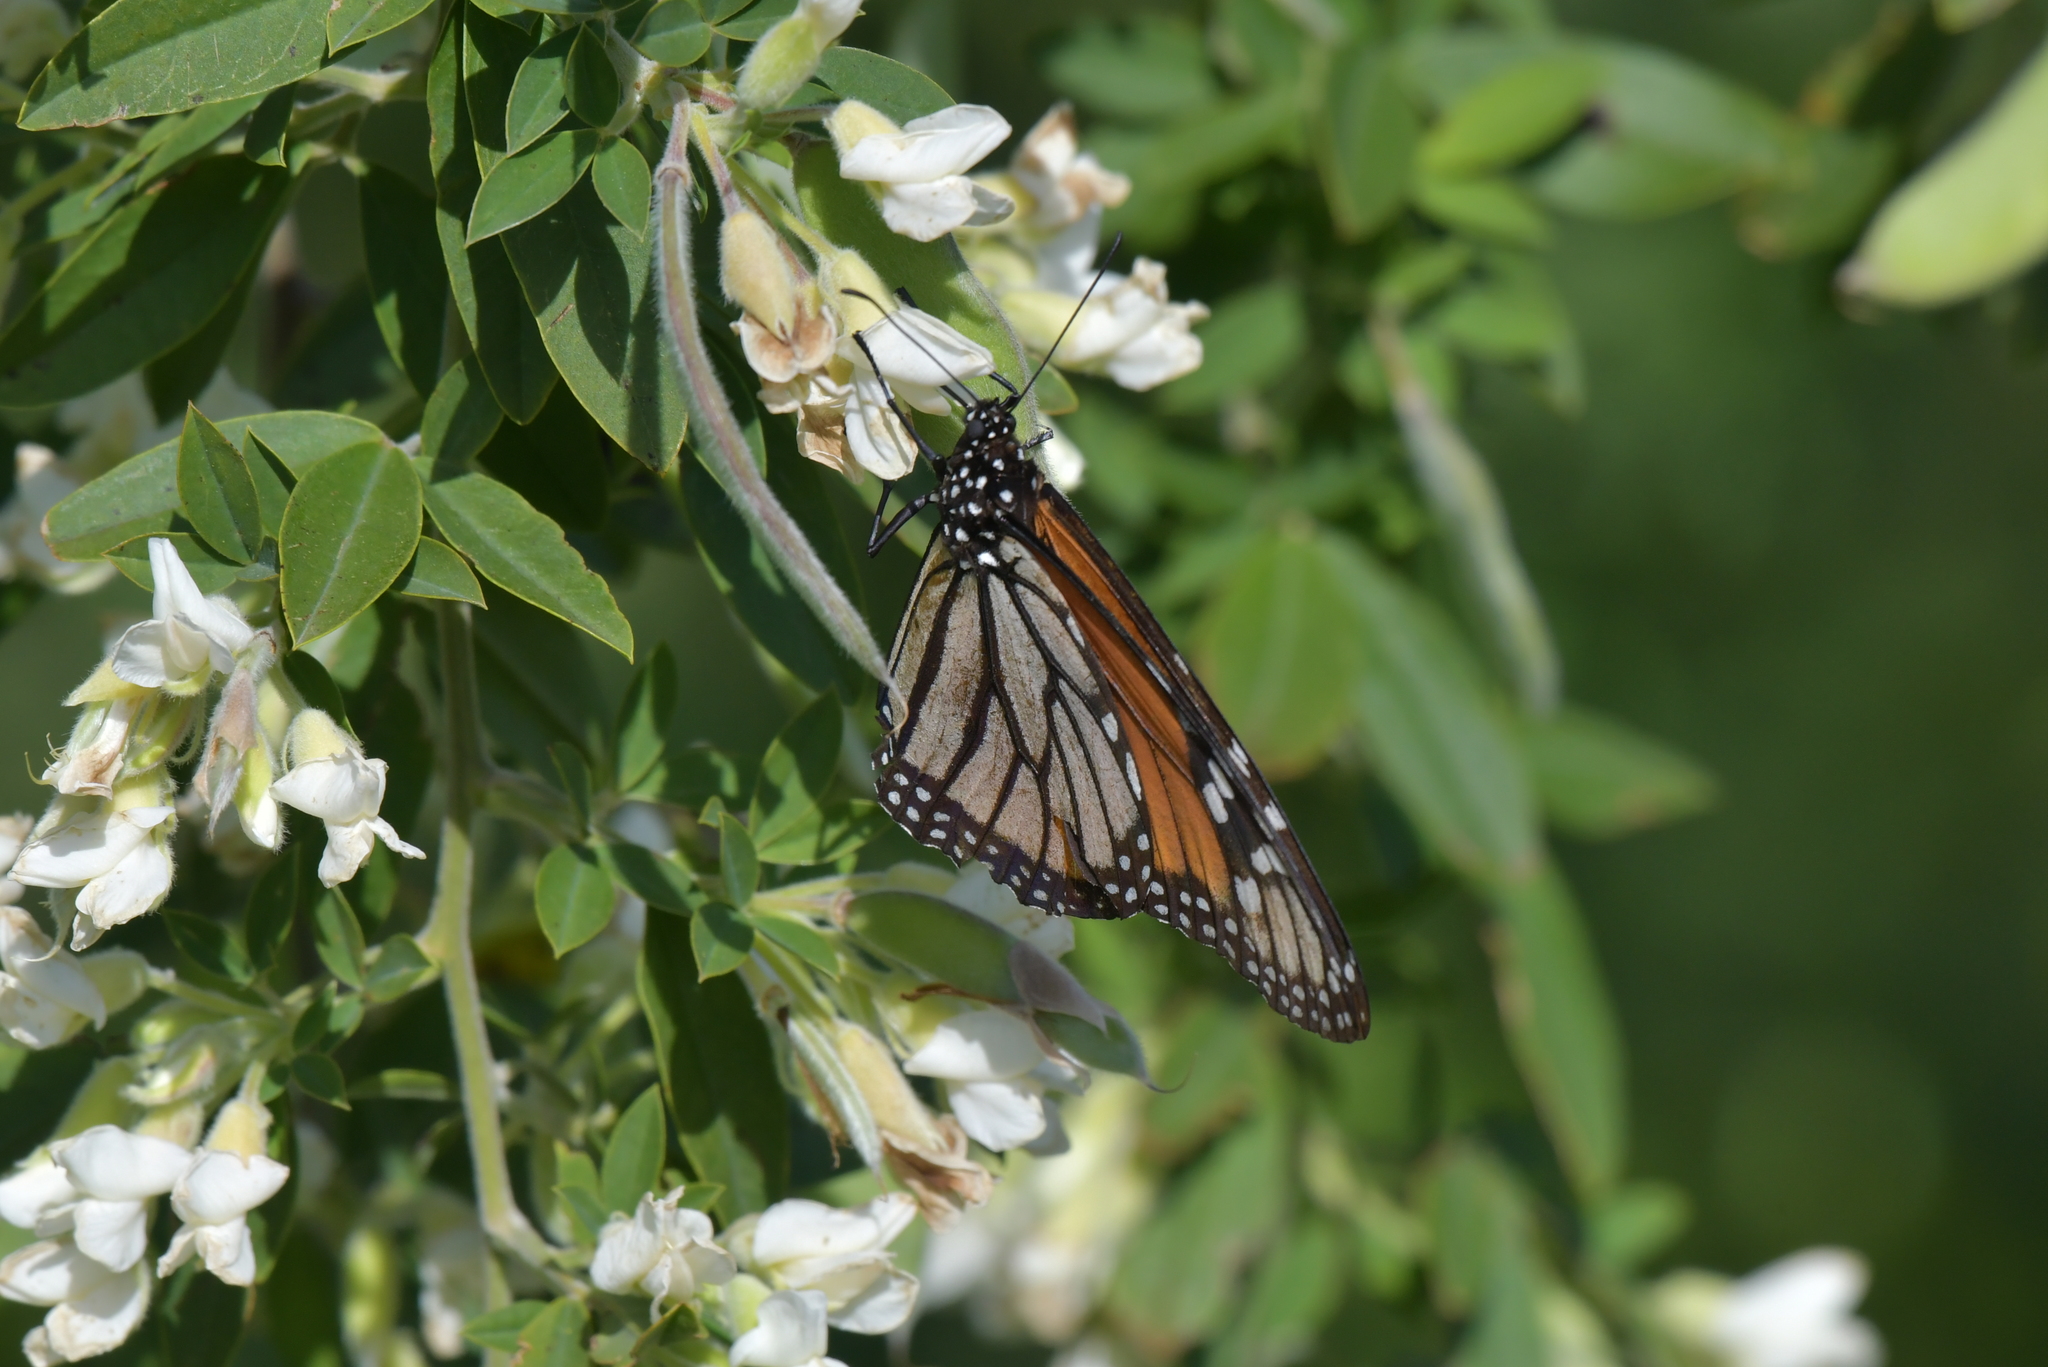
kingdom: Animalia
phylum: Arthropoda
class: Insecta
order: Lepidoptera
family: Nymphalidae
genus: Danaus
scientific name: Danaus plexippus
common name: Monarch
